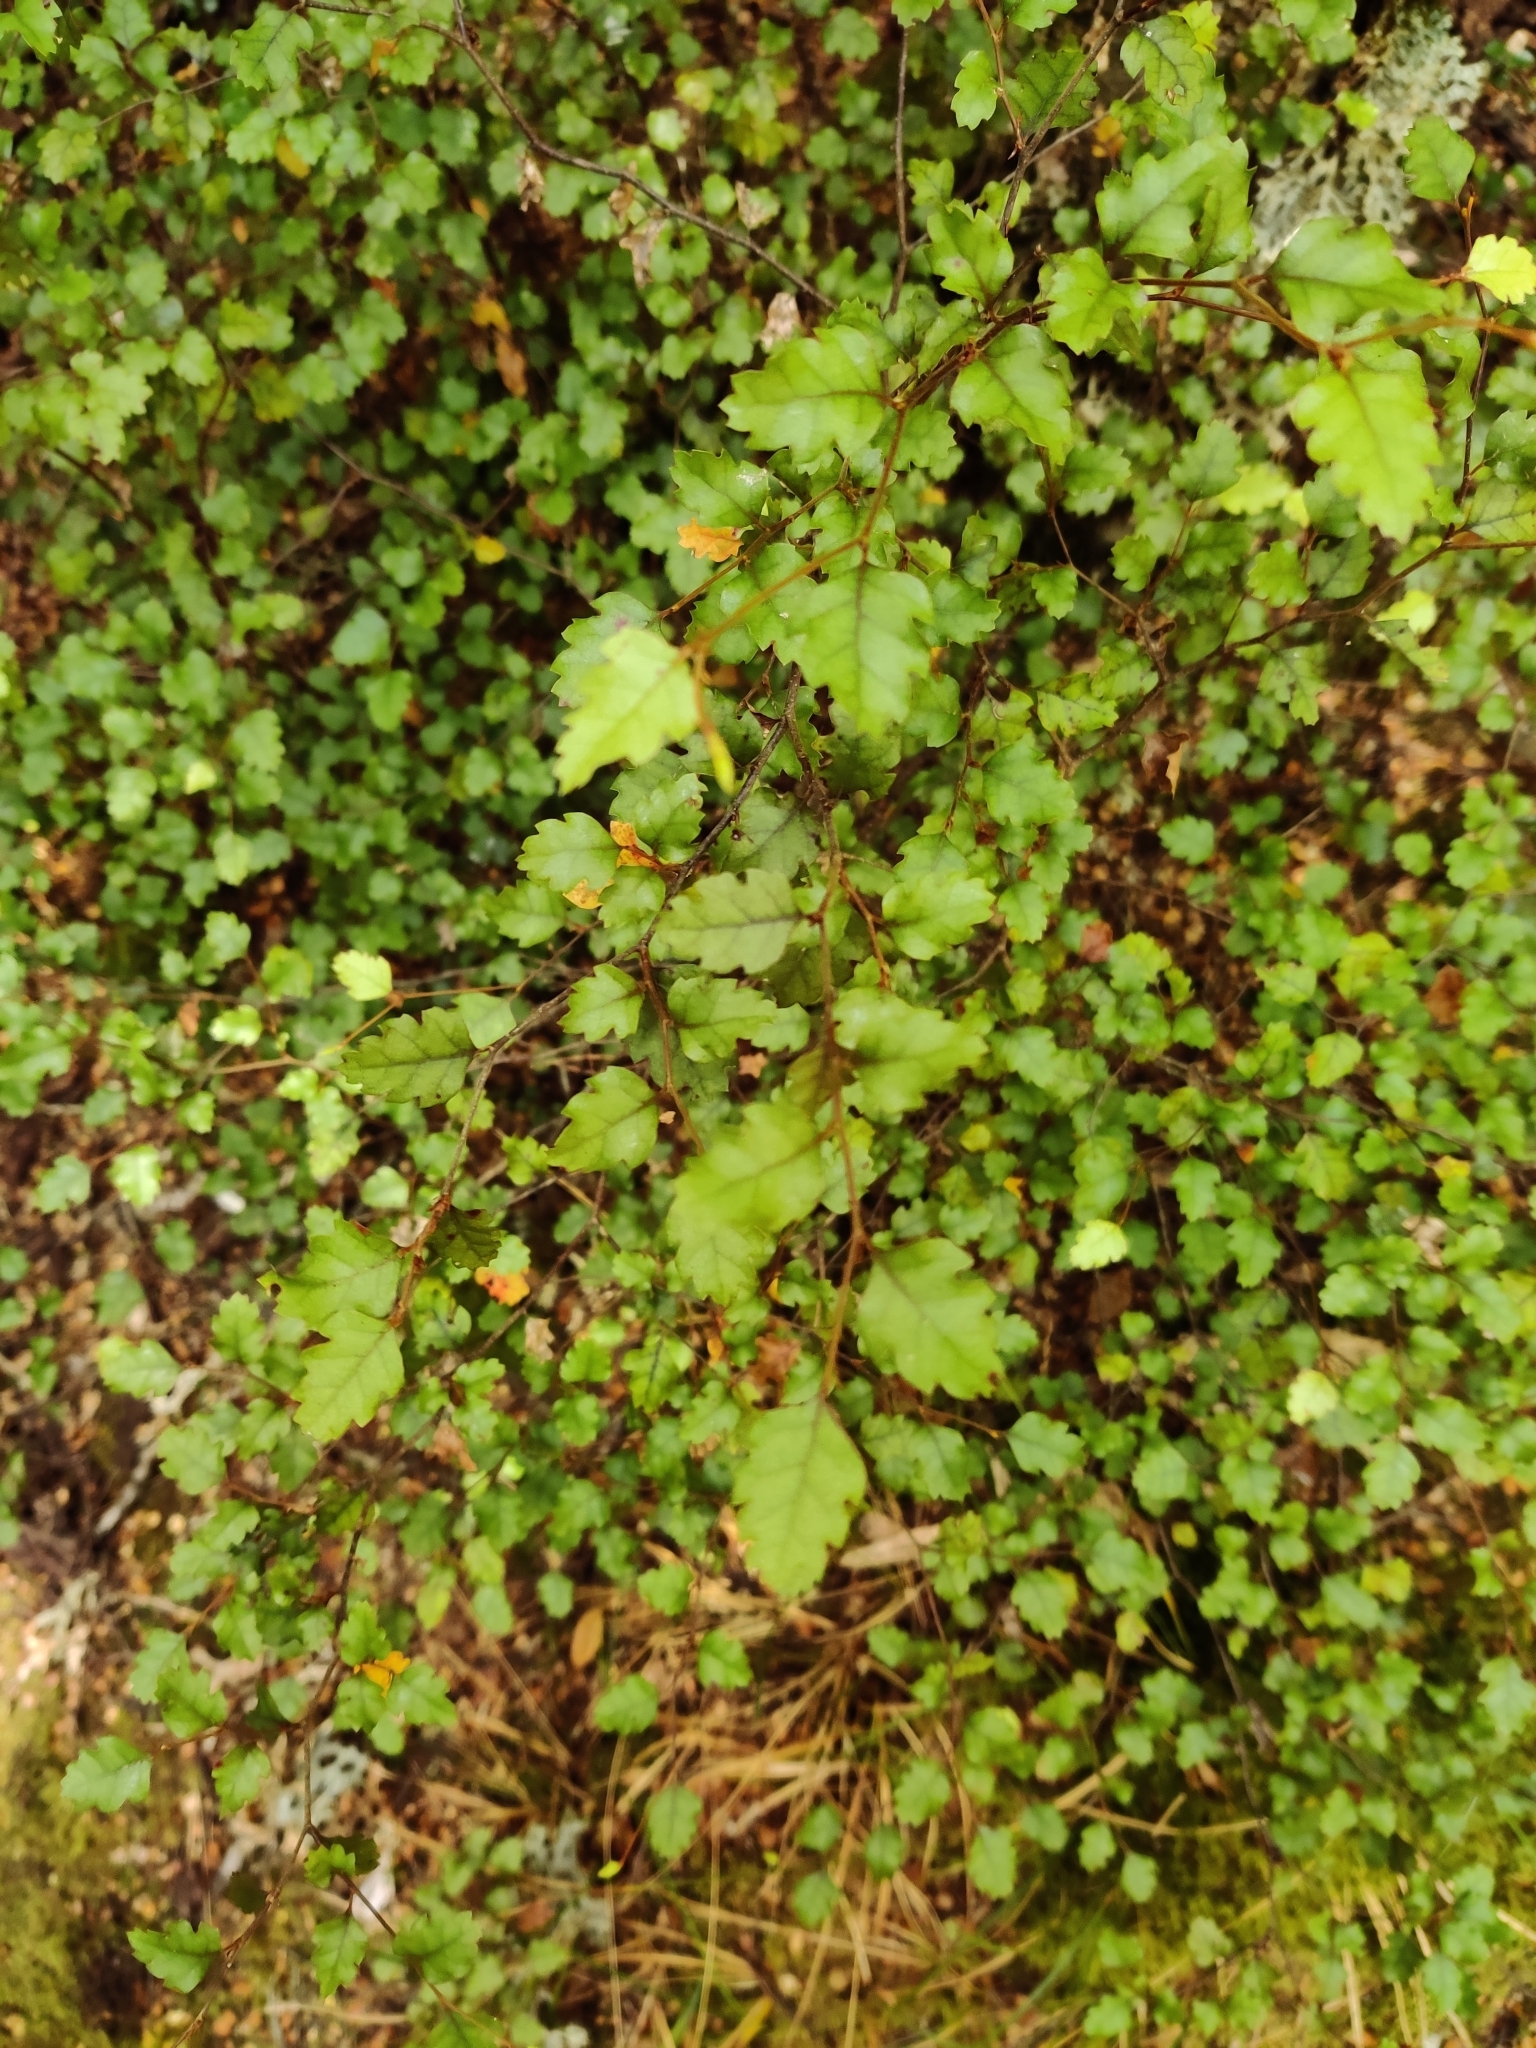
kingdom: Plantae
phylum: Tracheophyta
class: Magnoliopsida
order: Fagales
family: Nothofagaceae
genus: Nothofagus
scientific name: Nothofagus fusca
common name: Red beech
